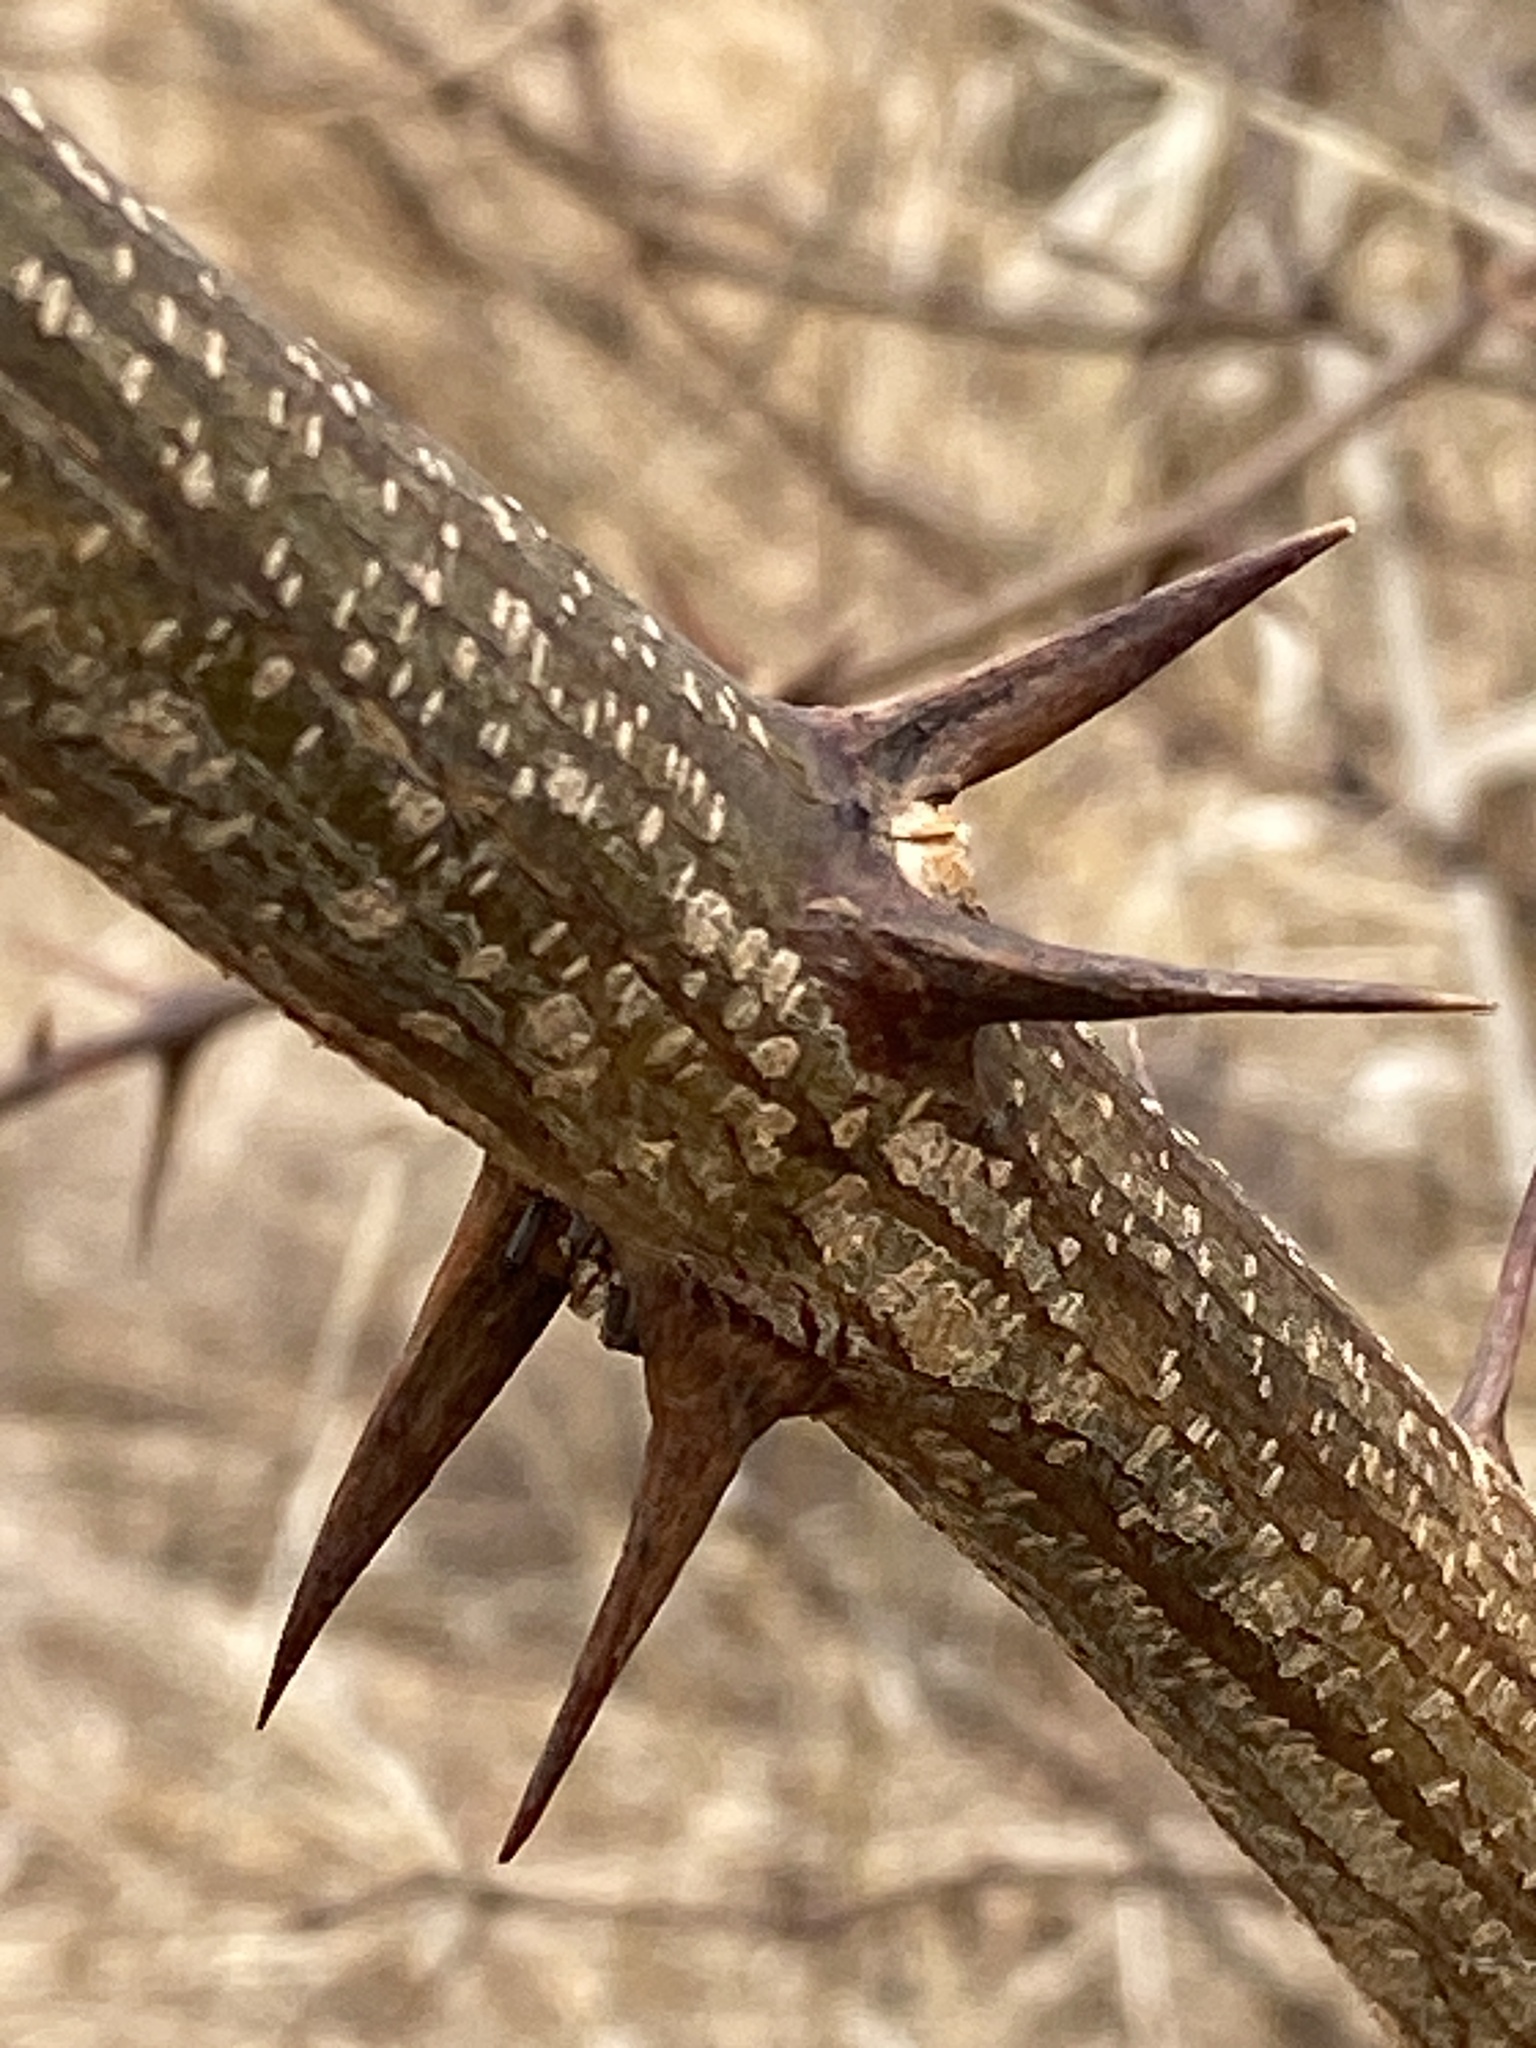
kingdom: Plantae
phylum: Tracheophyta
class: Magnoliopsida
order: Fabales
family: Fabaceae
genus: Robinia
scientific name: Robinia pseudoacacia
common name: Black locust
